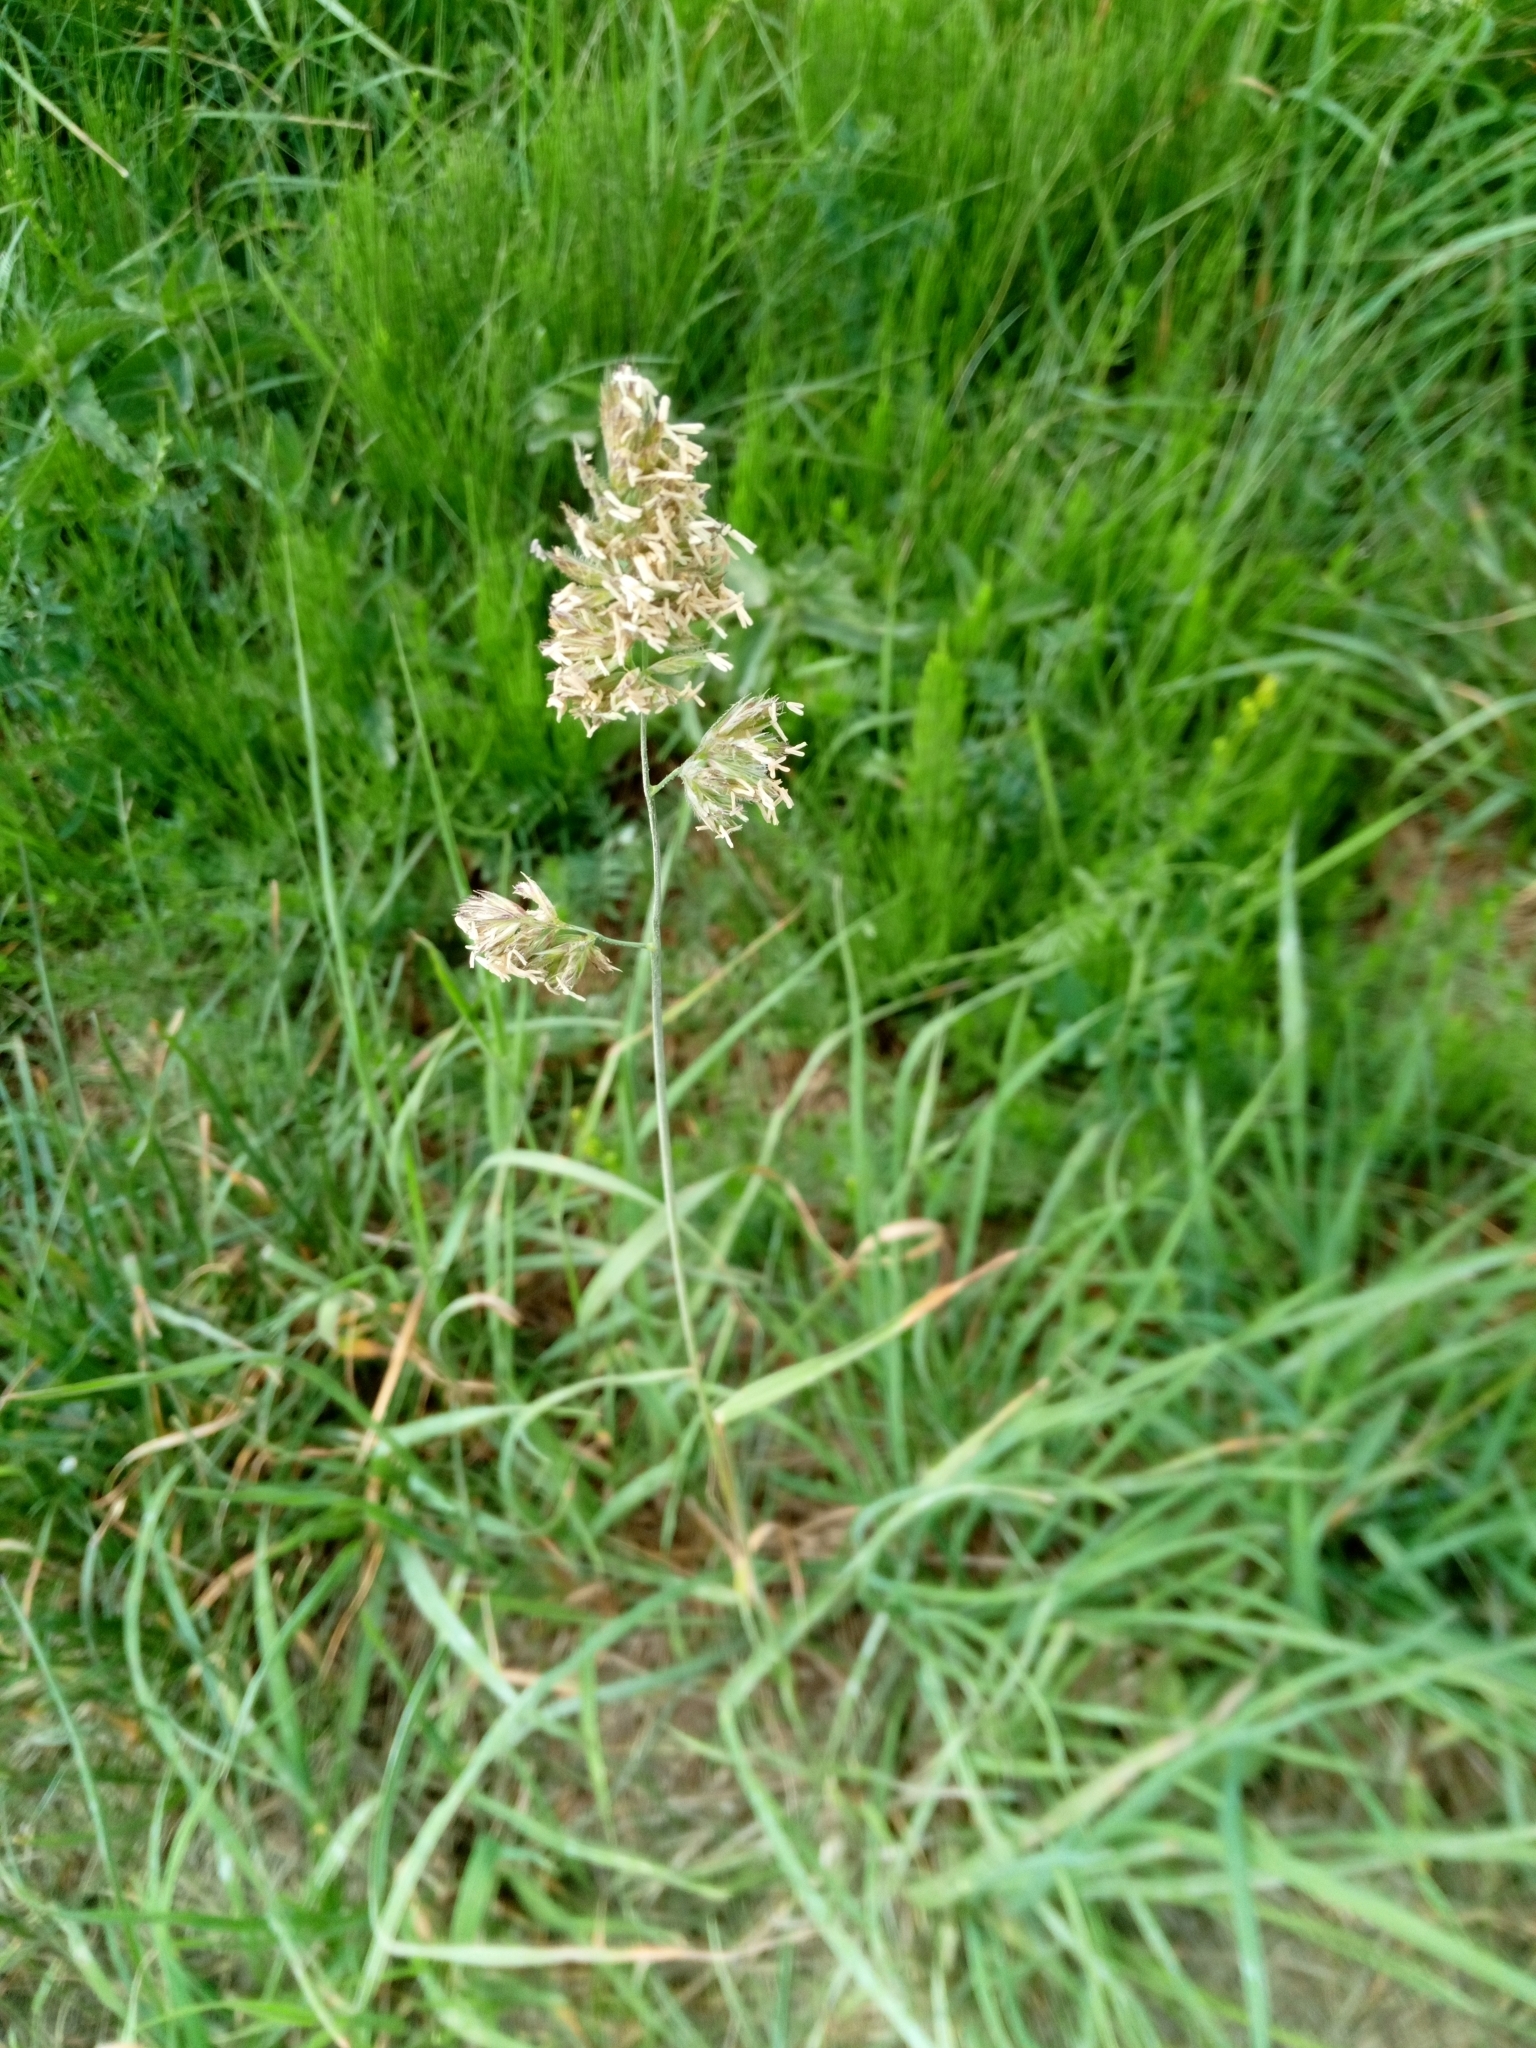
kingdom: Plantae
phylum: Tracheophyta
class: Liliopsida
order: Poales
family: Poaceae
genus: Dactylis
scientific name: Dactylis glomerata
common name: Orchardgrass
